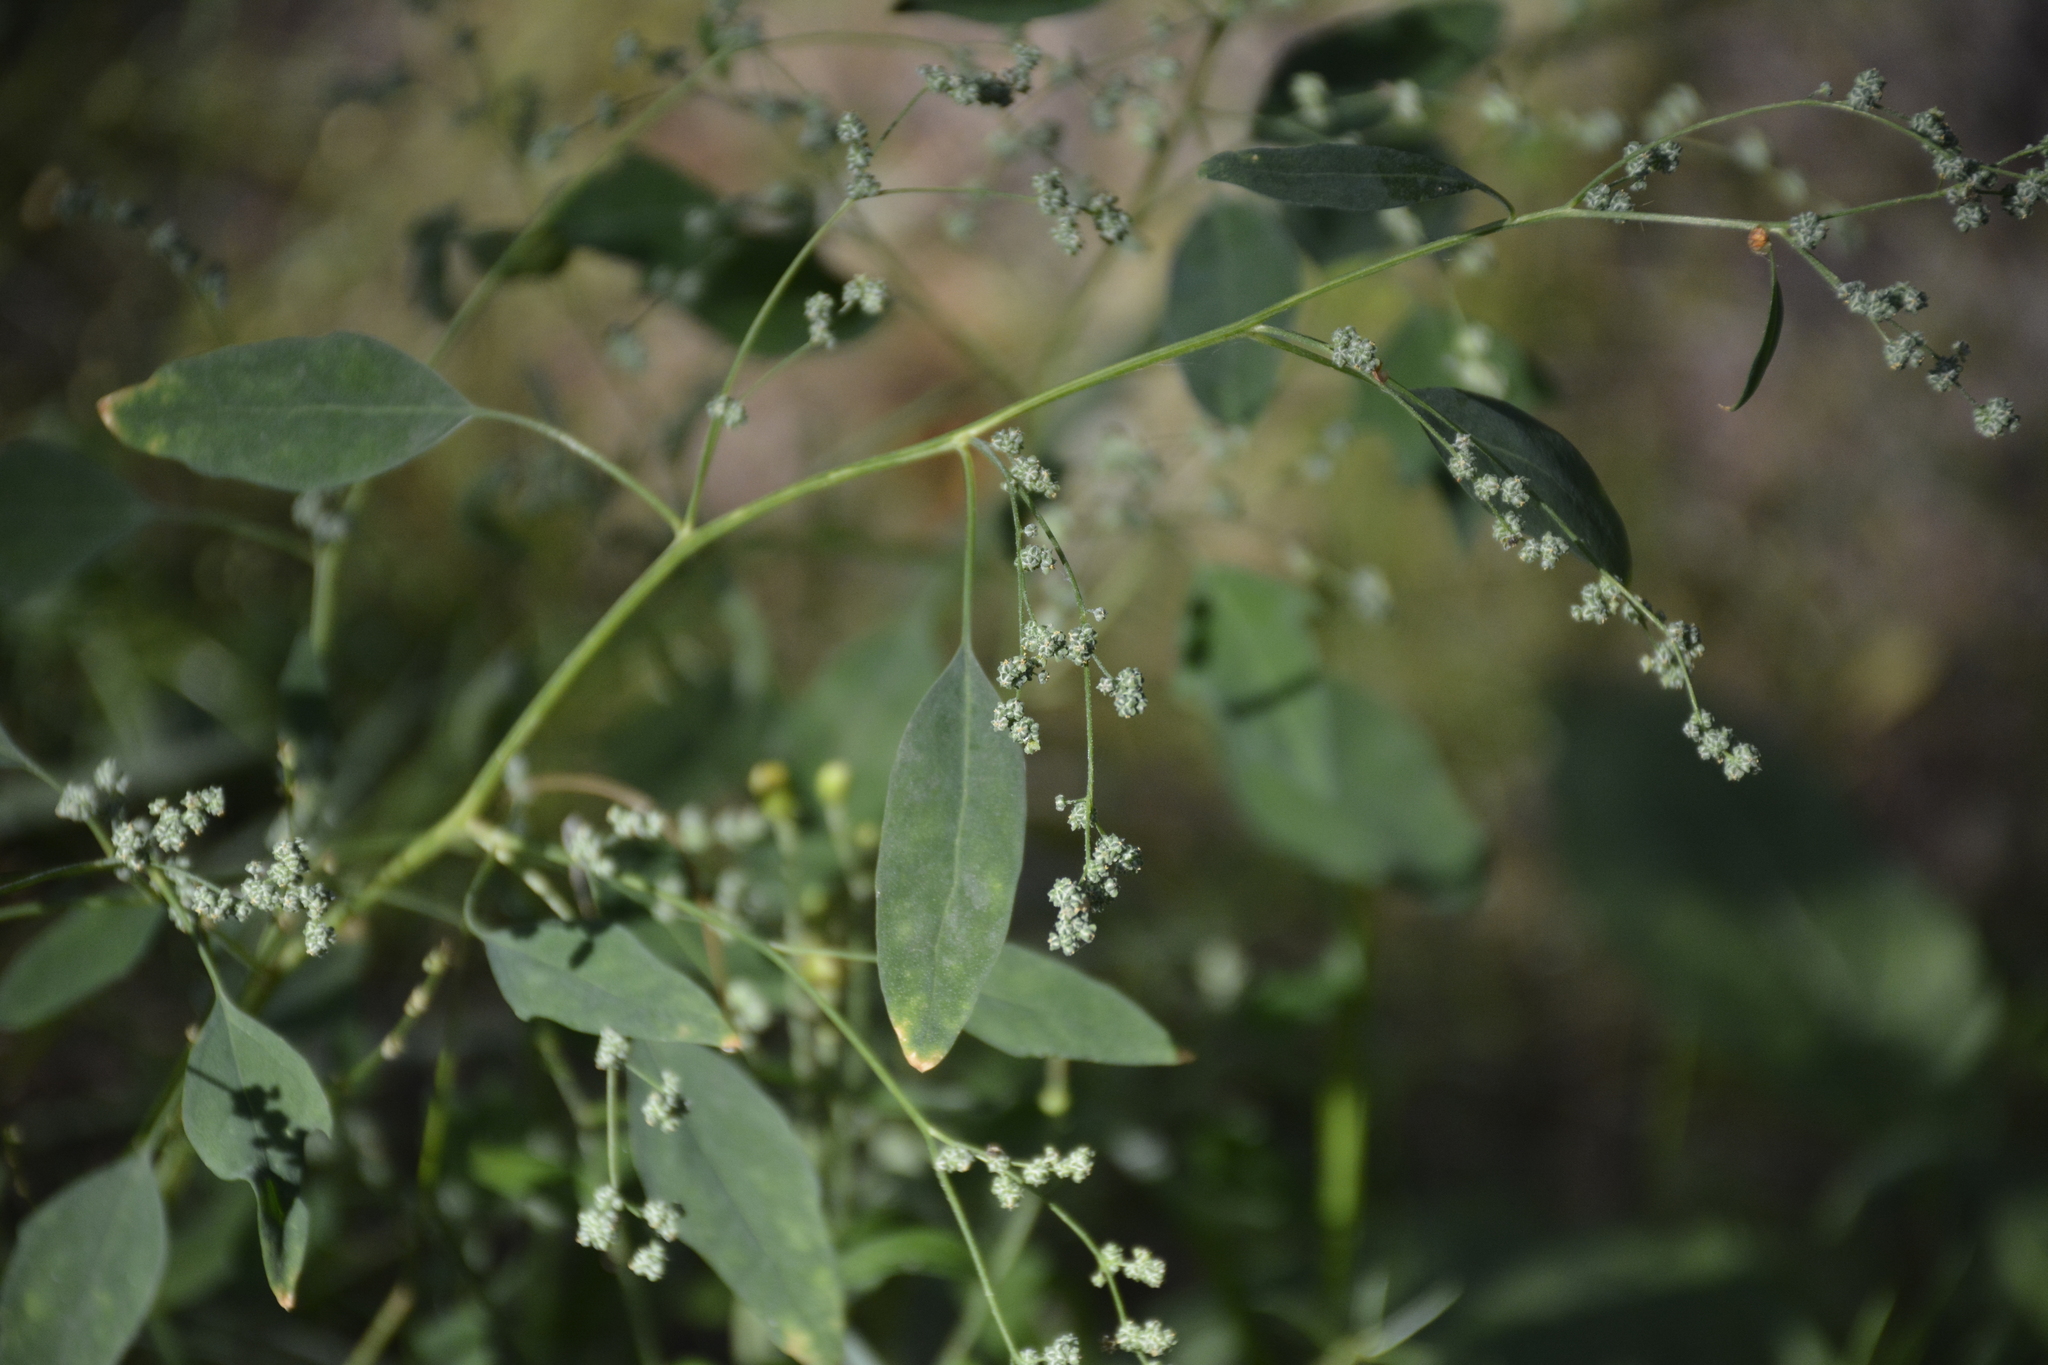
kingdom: Plantae
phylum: Tracheophyta
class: Magnoliopsida
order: Caryophyllales
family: Amaranthaceae
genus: Chenopodium
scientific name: Chenopodium album
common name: Fat-hen
